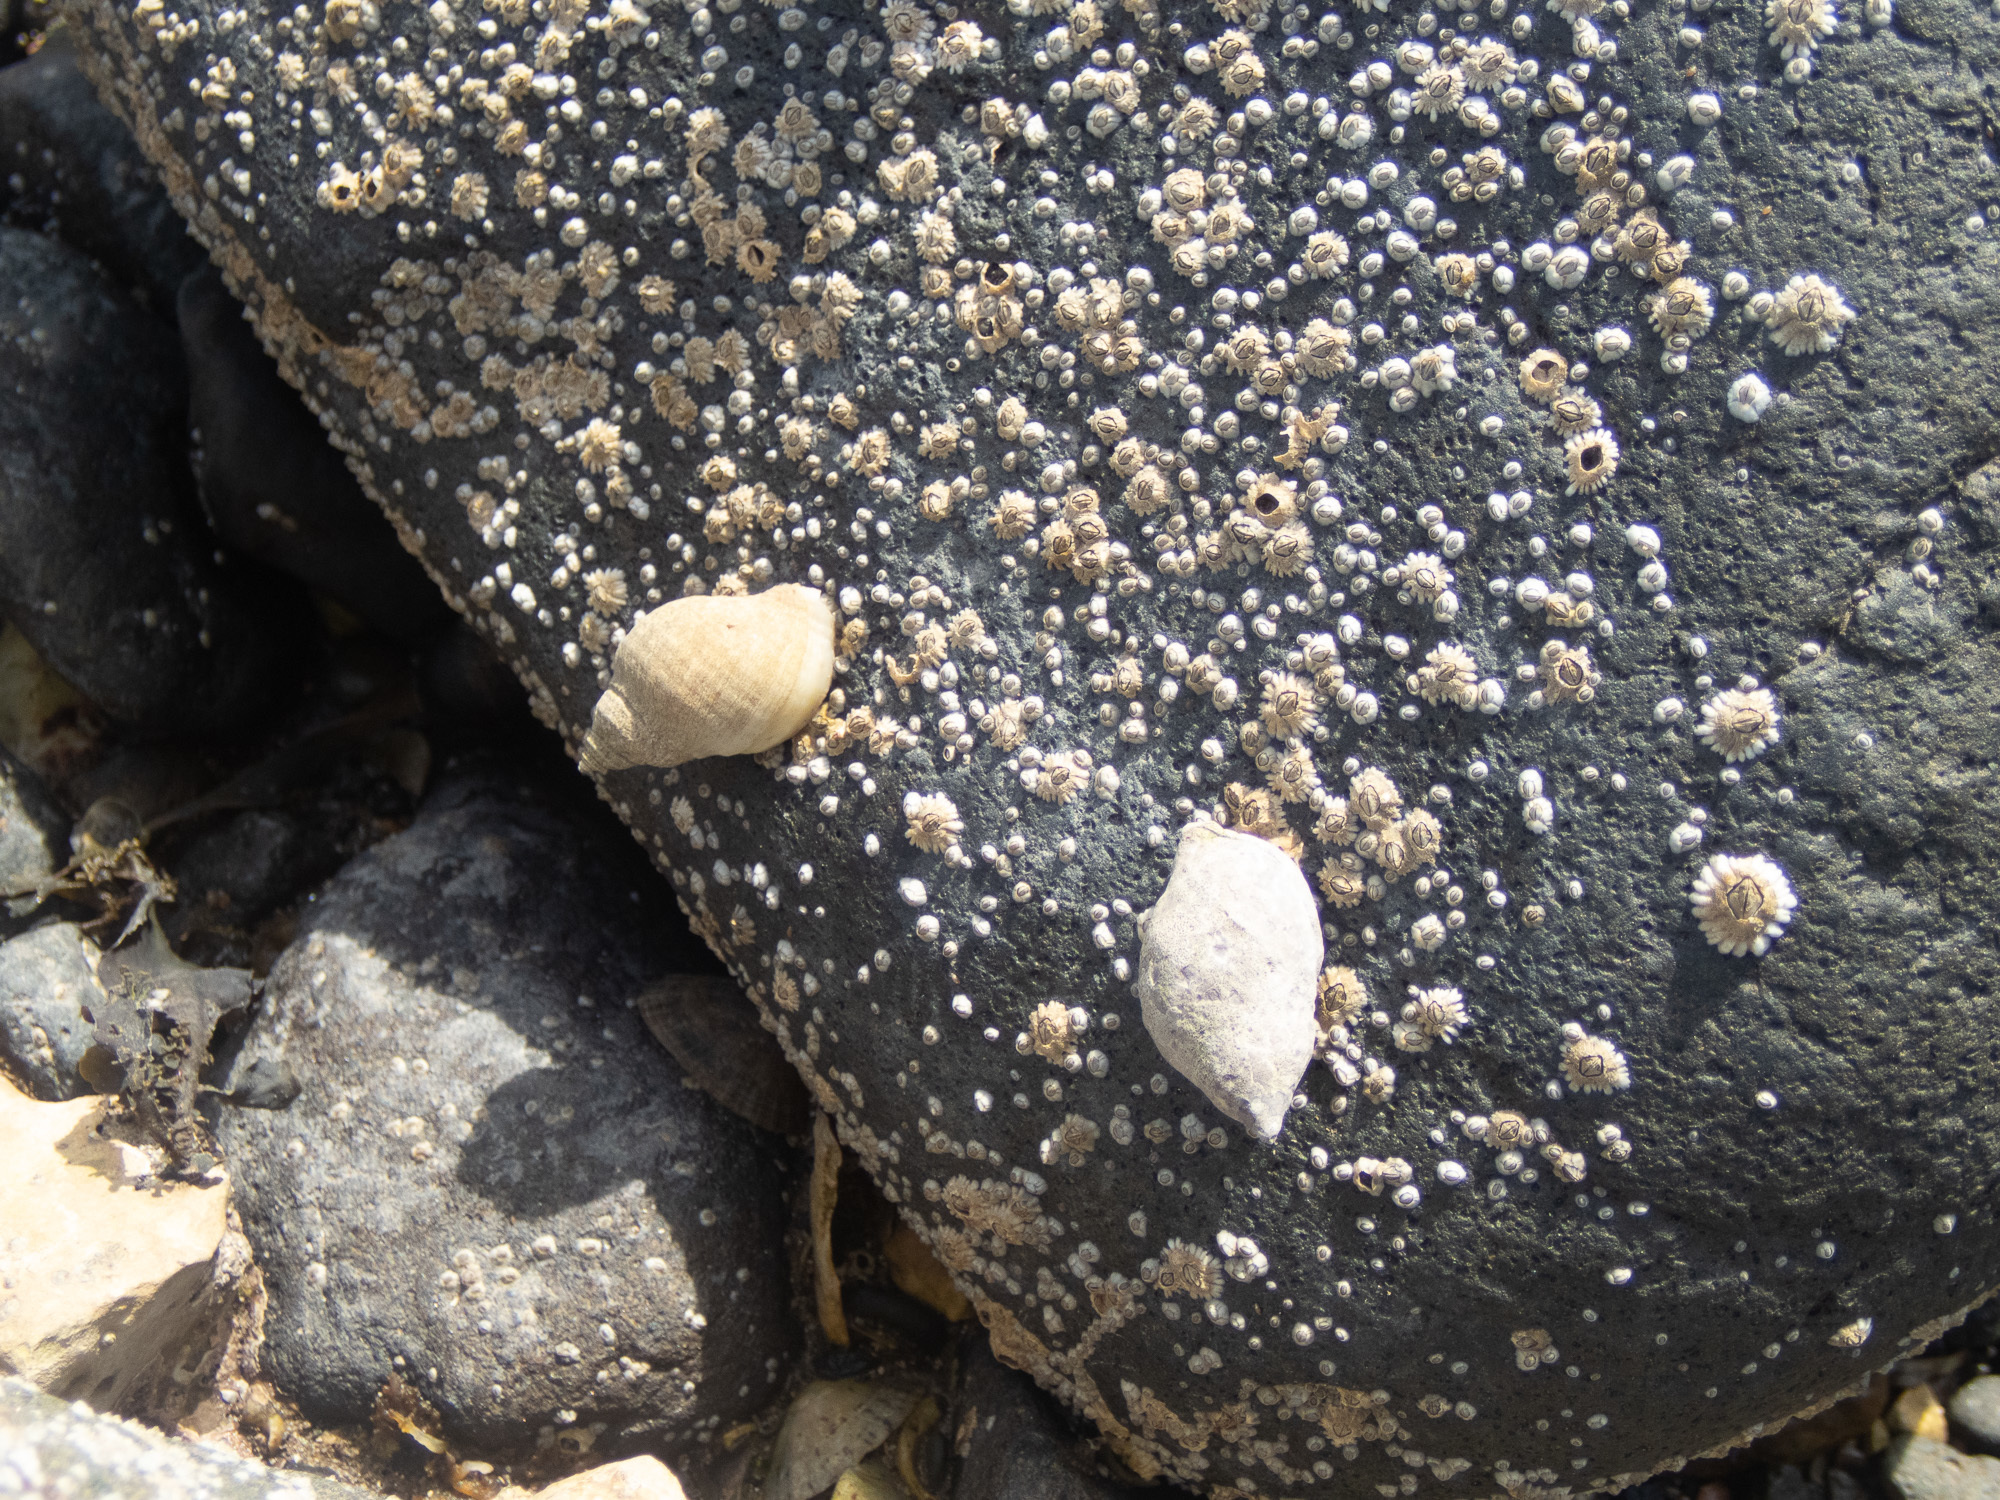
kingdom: Animalia
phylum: Mollusca
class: Gastropoda
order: Neogastropoda
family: Muricidae
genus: Nucella
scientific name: Nucella lapillus
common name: Dog whelk
